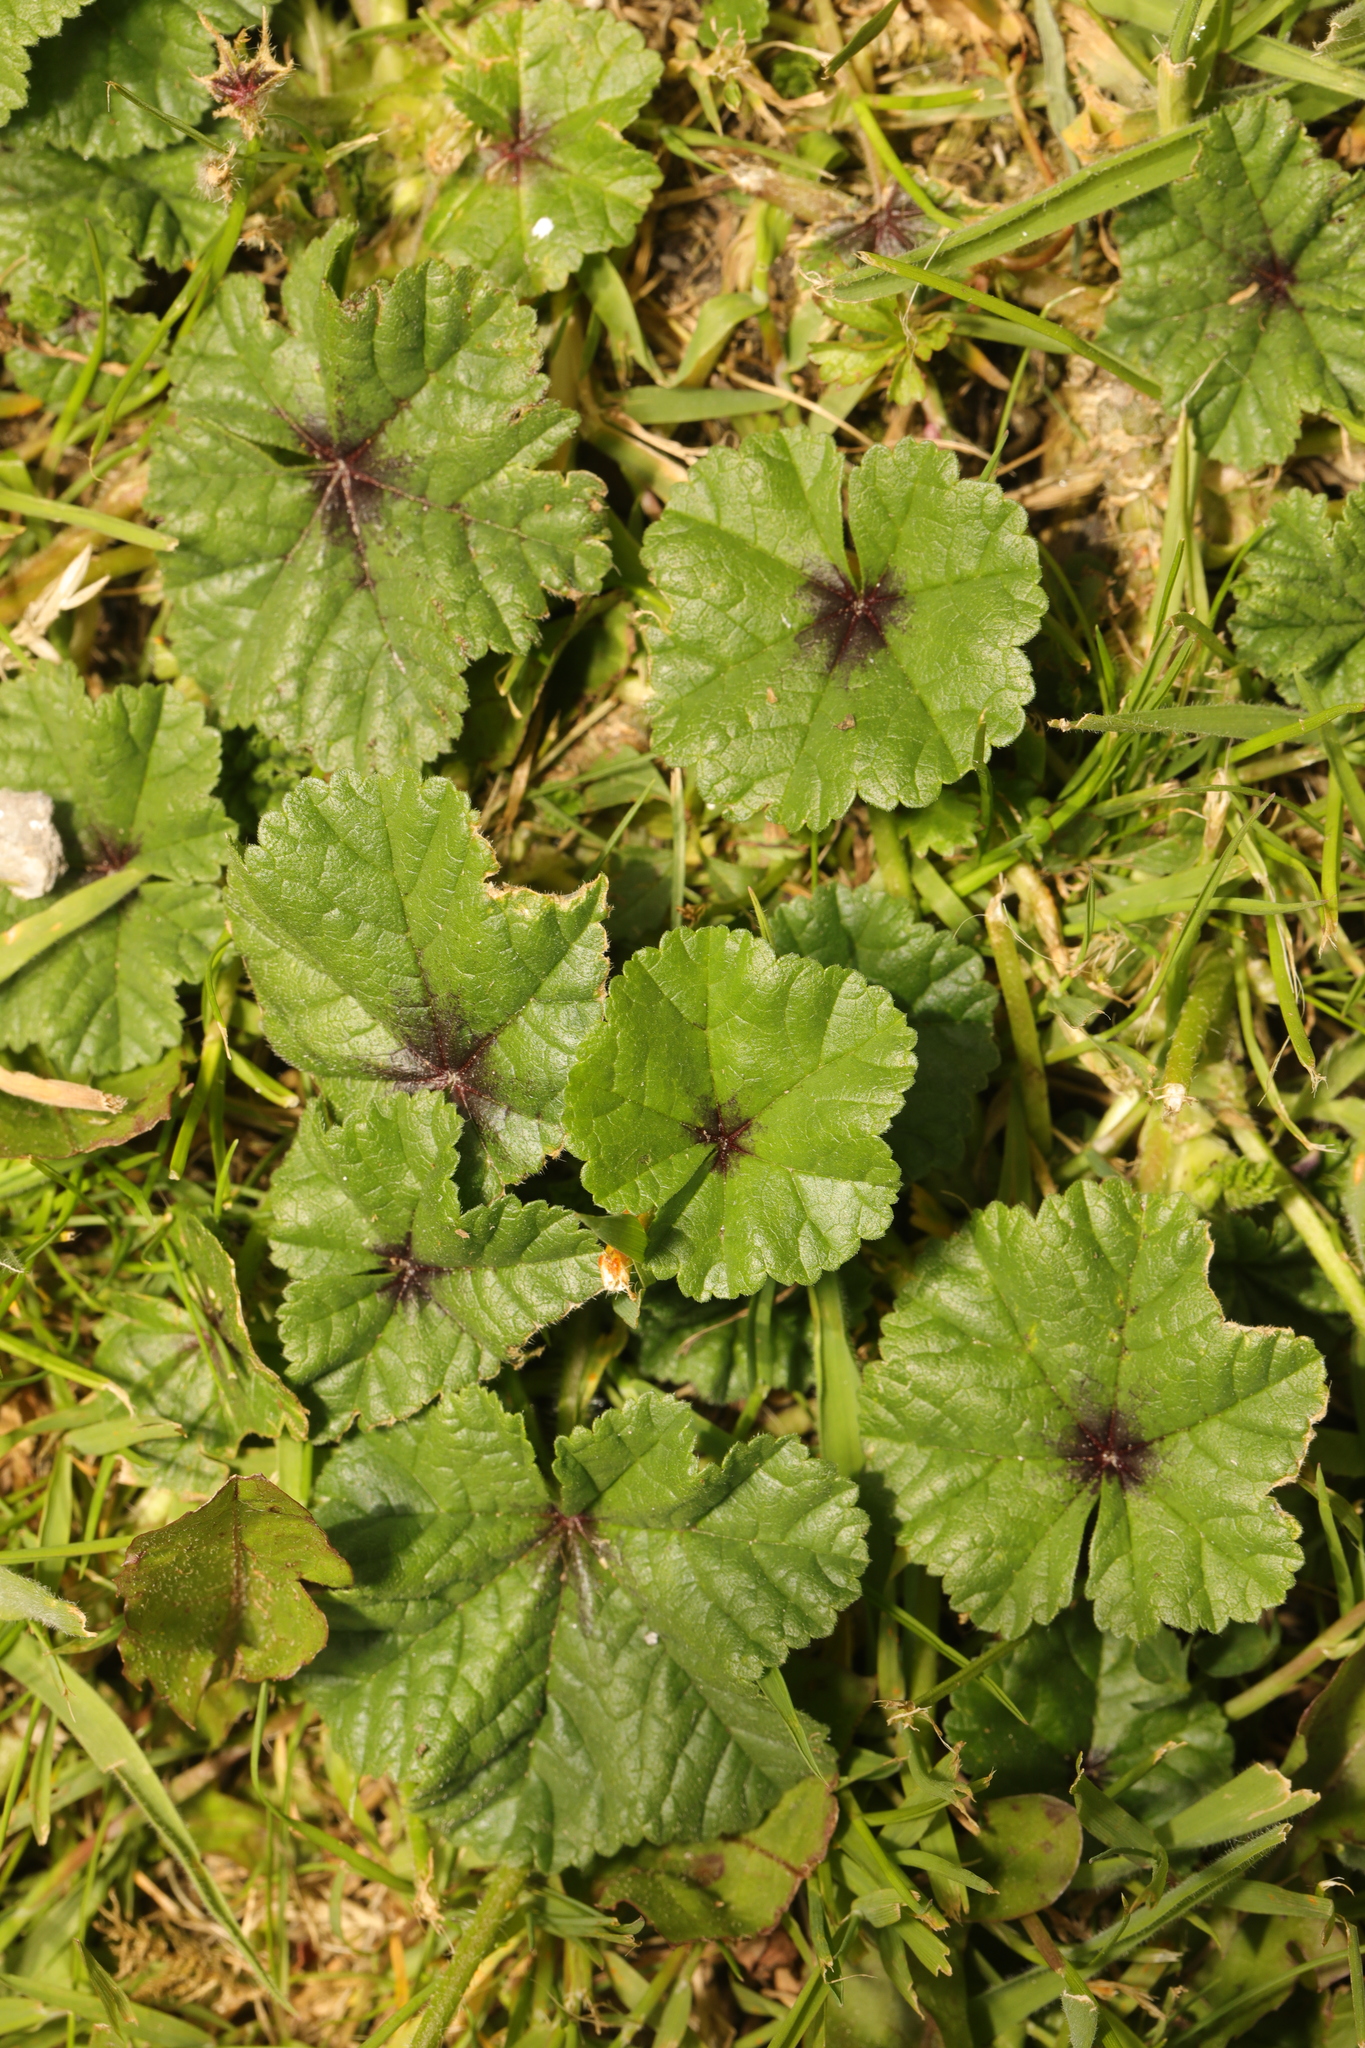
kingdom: Plantae
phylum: Tracheophyta
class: Magnoliopsida
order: Malvales
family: Malvaceae
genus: Malva
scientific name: Malva sylvestris
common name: Common mallow
